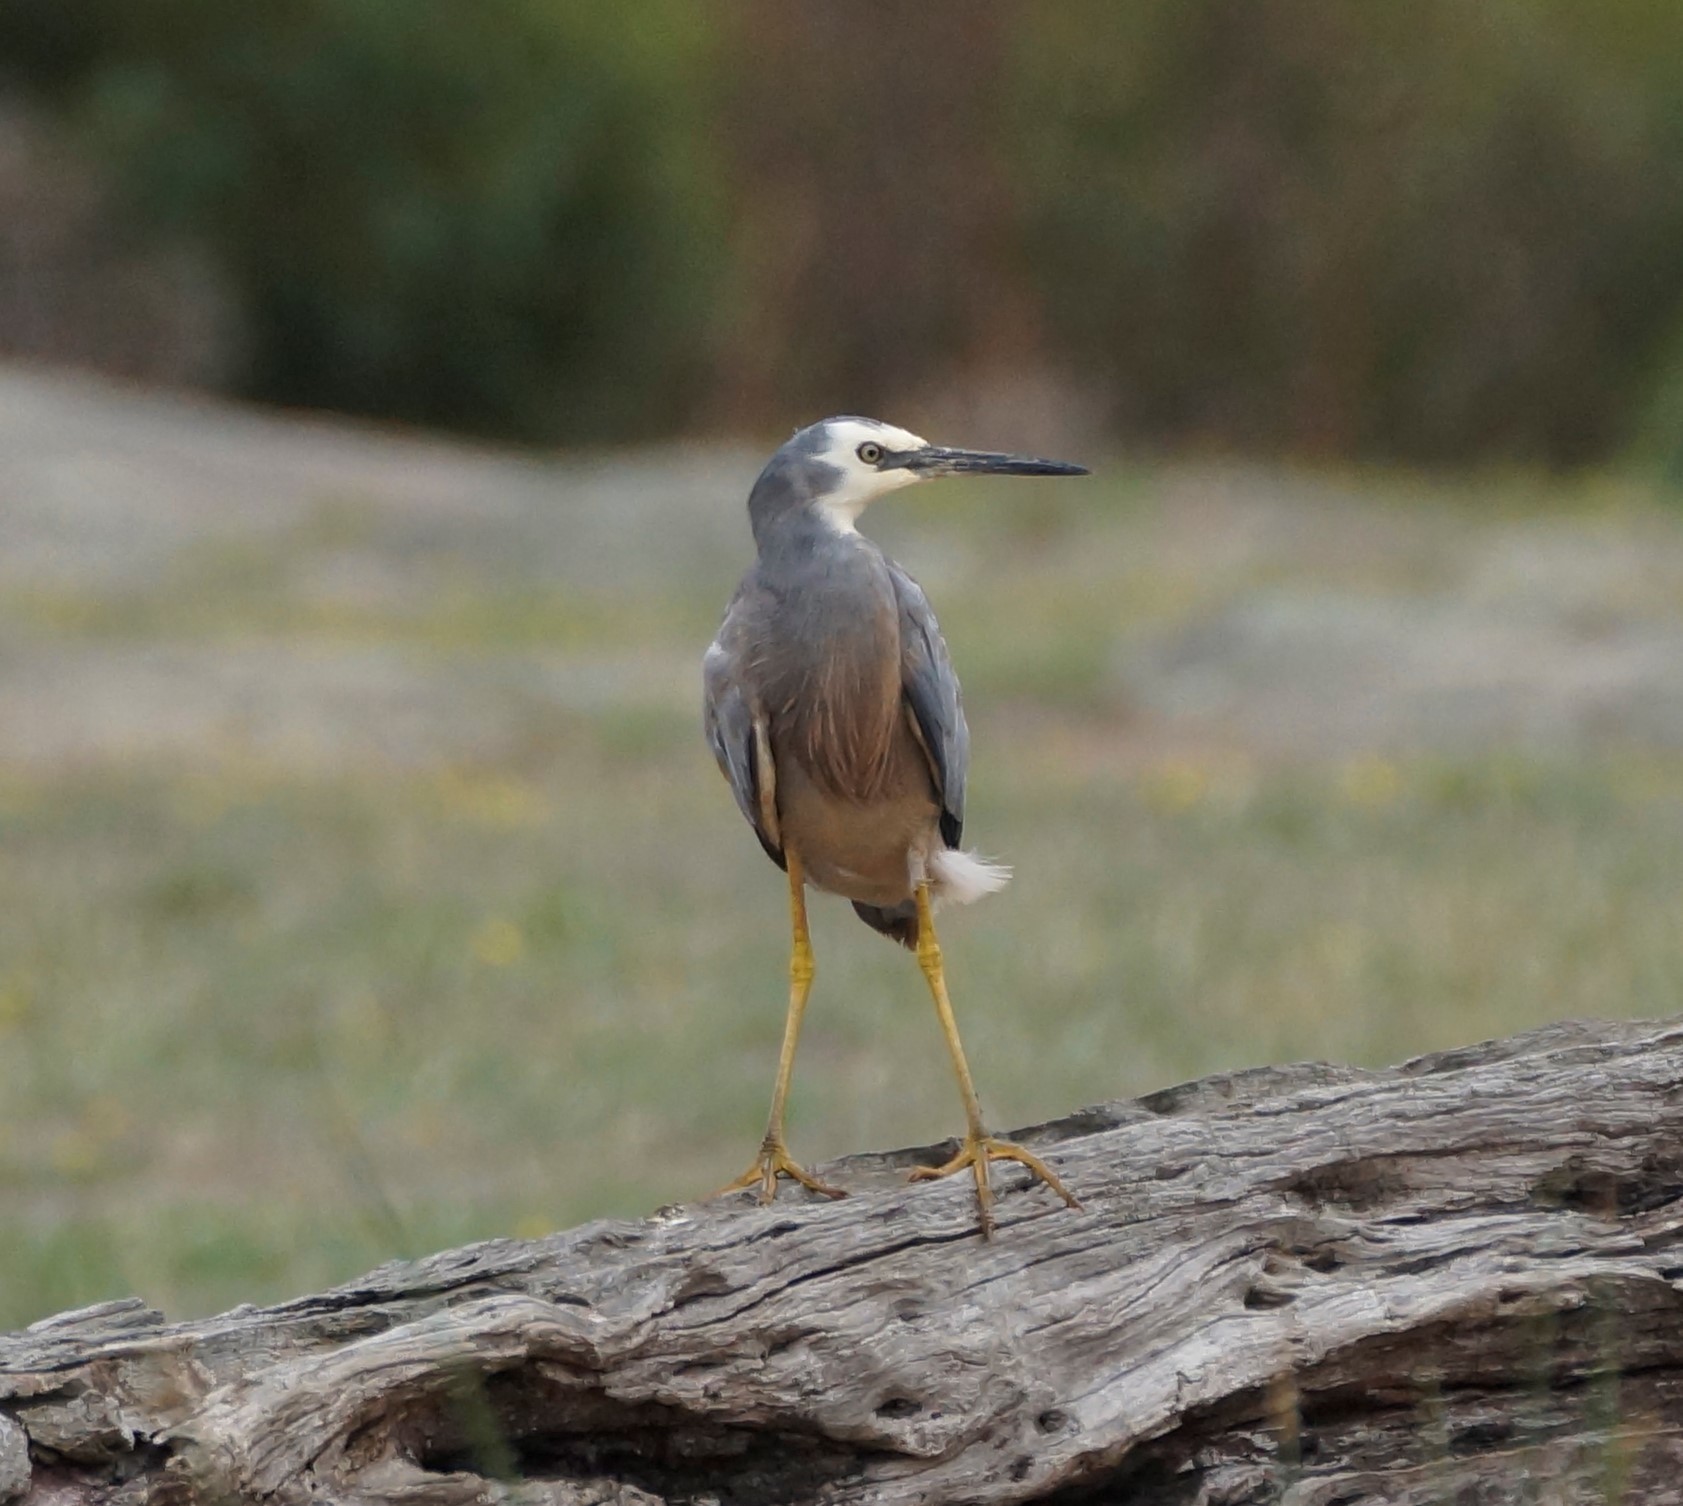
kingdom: Animalia
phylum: Chordata
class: Aves
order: Pelecaniformes
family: Ardeidae
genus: Egretta
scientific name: Egretta novaehollandiae
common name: White-faced heron
